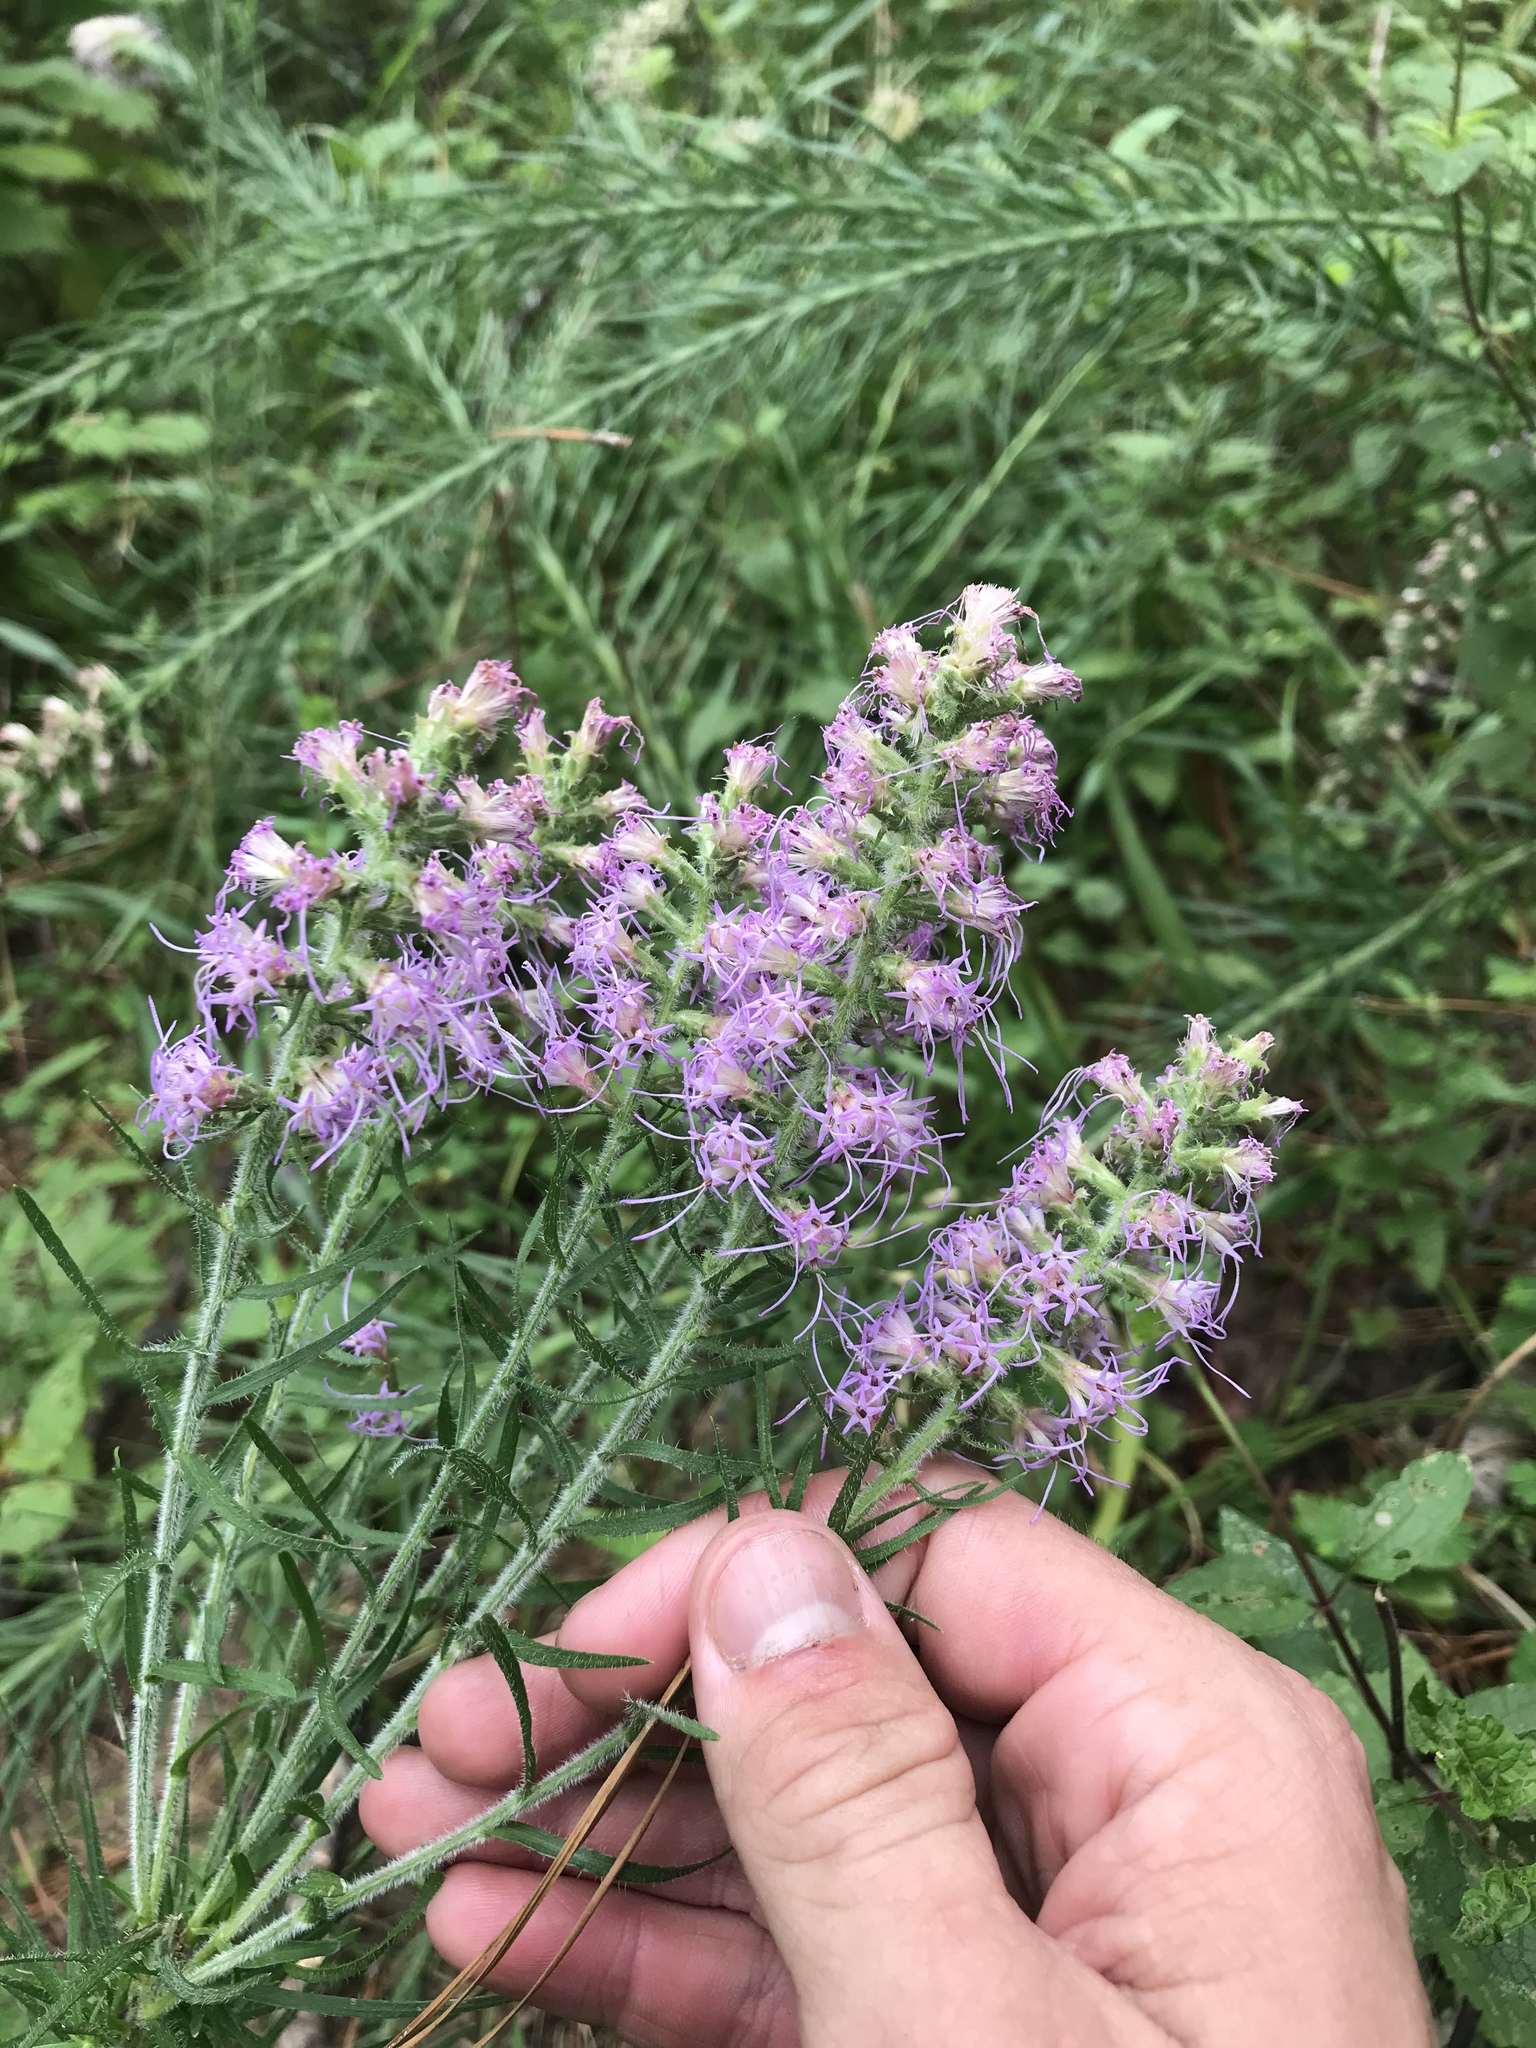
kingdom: Plantae
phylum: Tracheophyta
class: Magnoliopsida
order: Asterales
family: Asteraceae
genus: Liatris
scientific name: Liatris pycnostachya
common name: Cattail gayfeather
